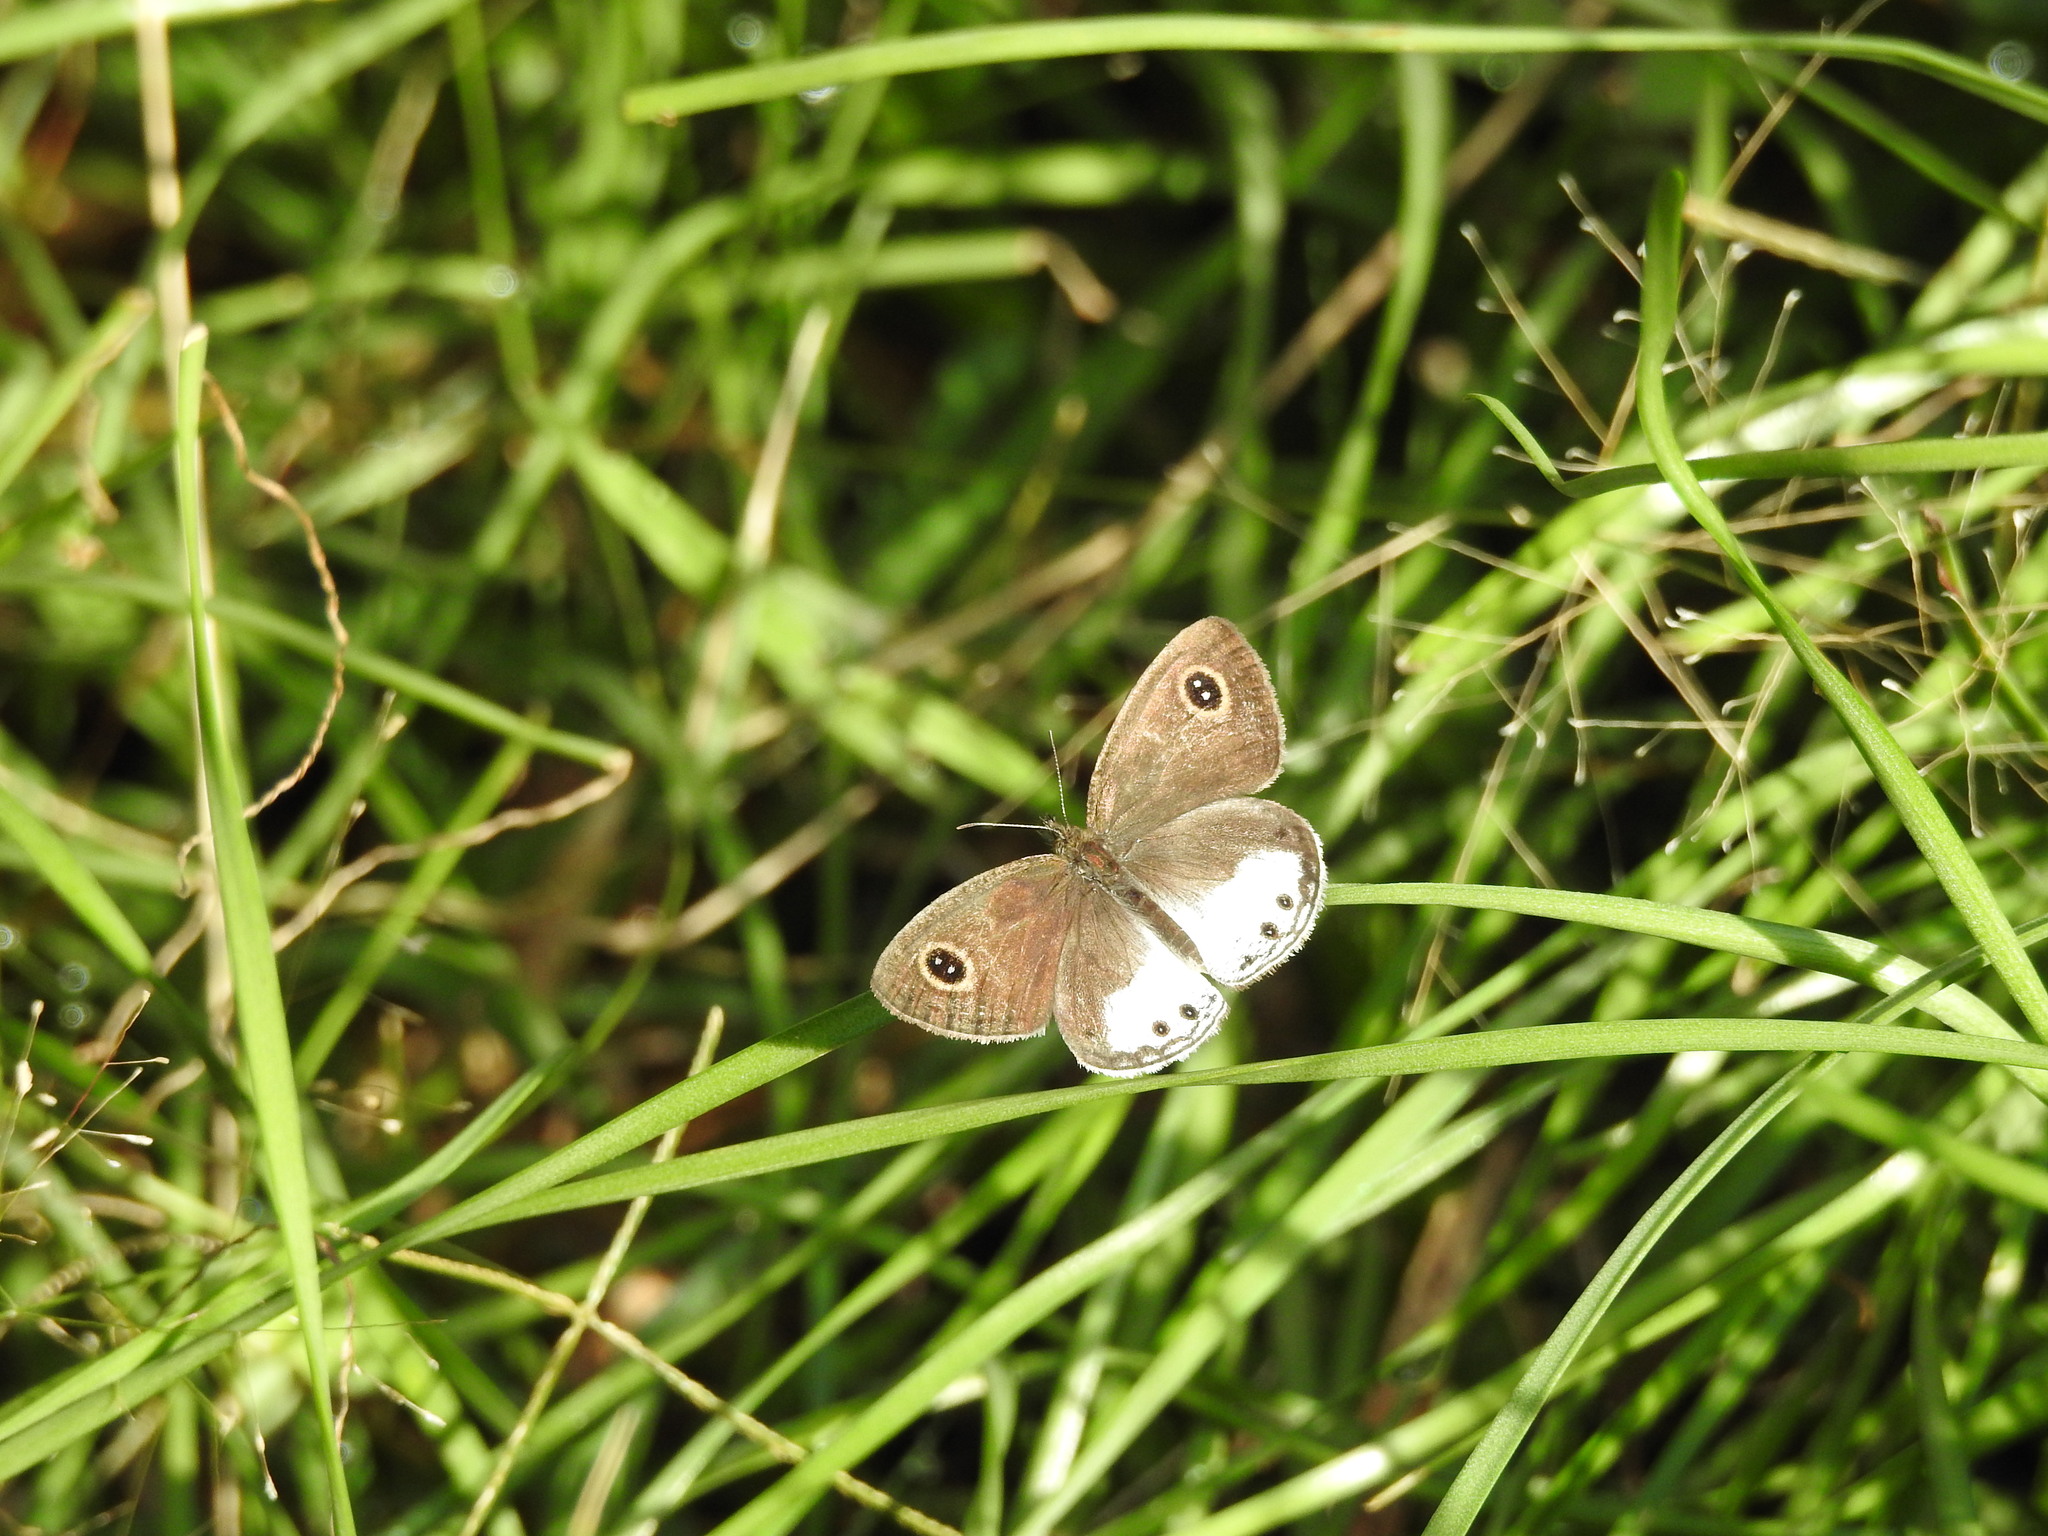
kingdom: Animalia
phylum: Arthropoda
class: Insecta
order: Lepidoptera
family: Nymphalidae
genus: Ypthima
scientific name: Ypthima ceylonica
